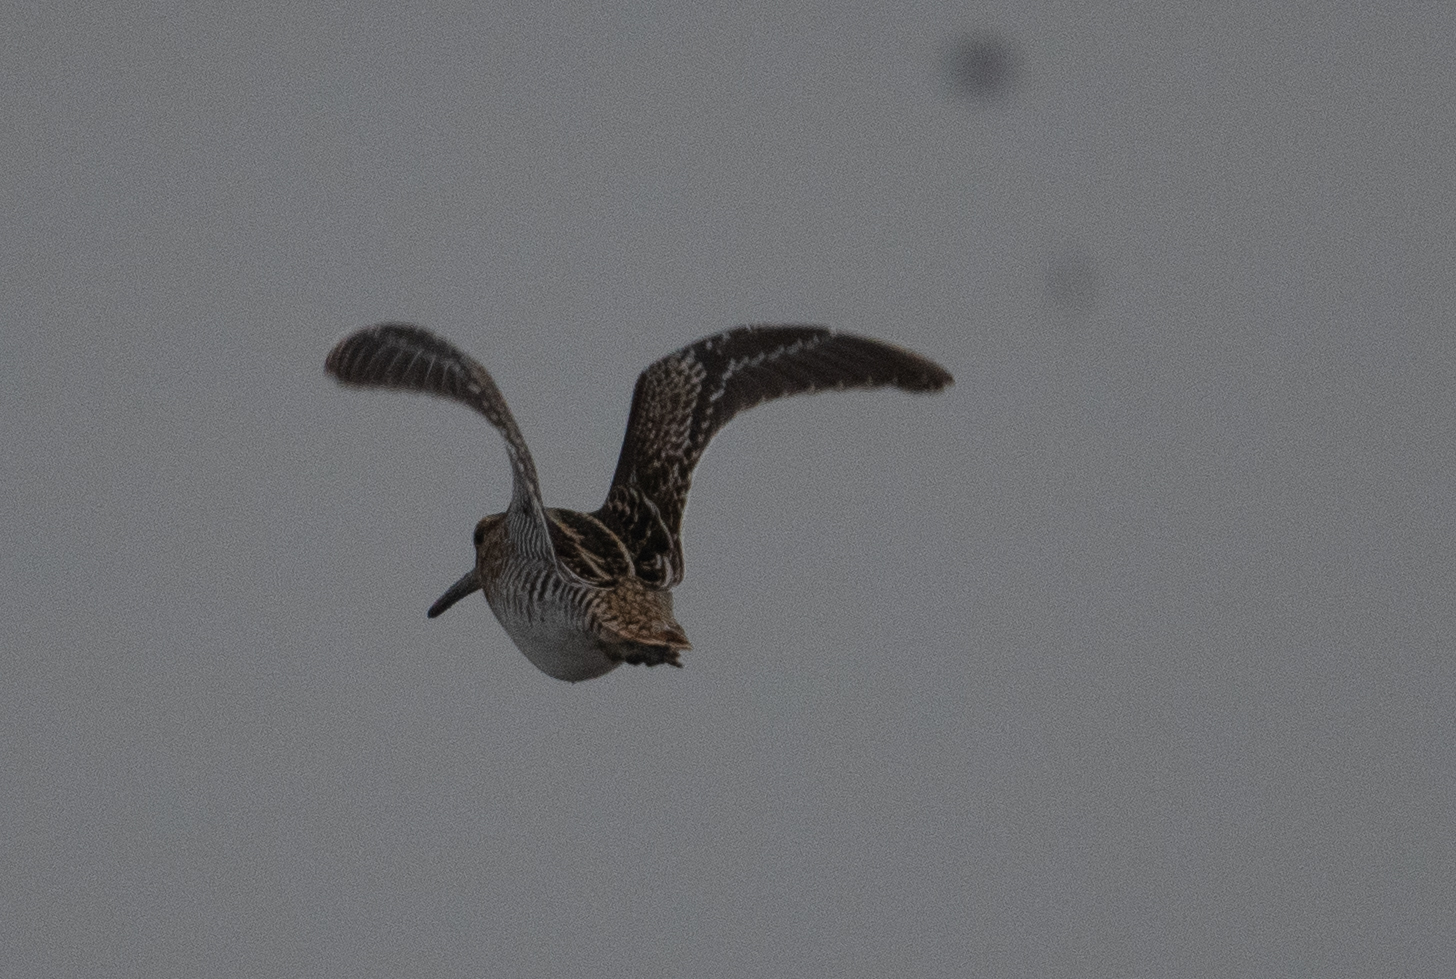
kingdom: Animalia
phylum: Chordata
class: Aves
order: Charadriiformes
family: Scolopacidae
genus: Gallinago
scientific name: Gallinago delicata
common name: Wilson's snipe
